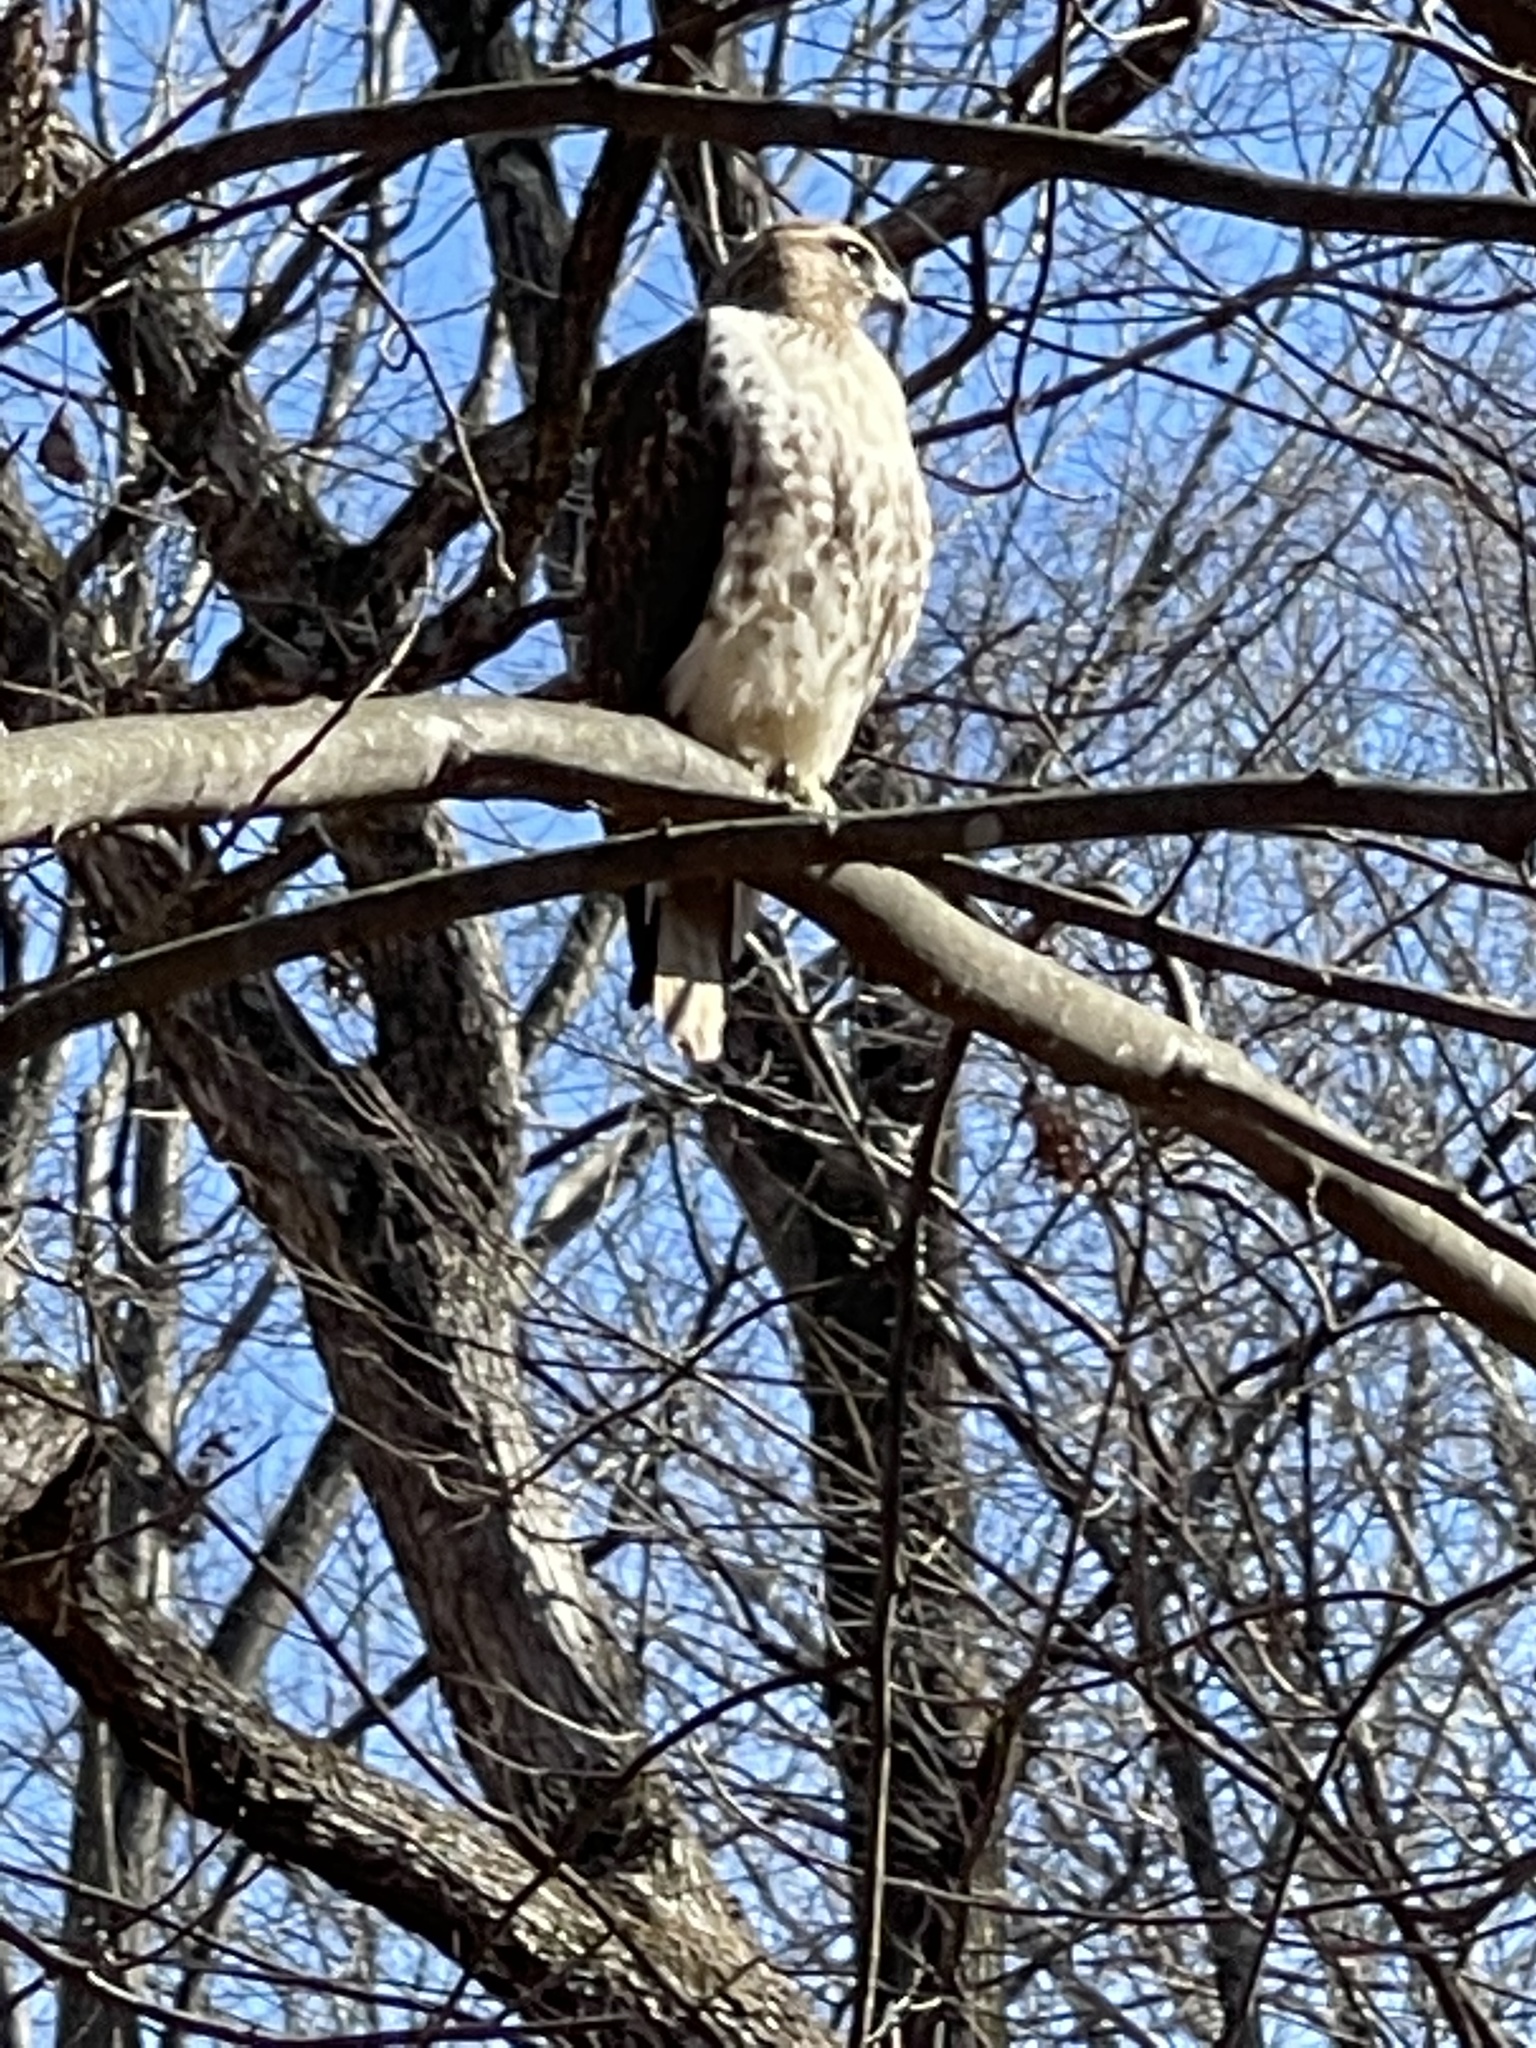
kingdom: Animalia
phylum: Chordata
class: Aves
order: Accipitriformes
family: Accipitridae
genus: Buteo
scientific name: Buteo jamaicensis
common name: Red-tailed hawk
